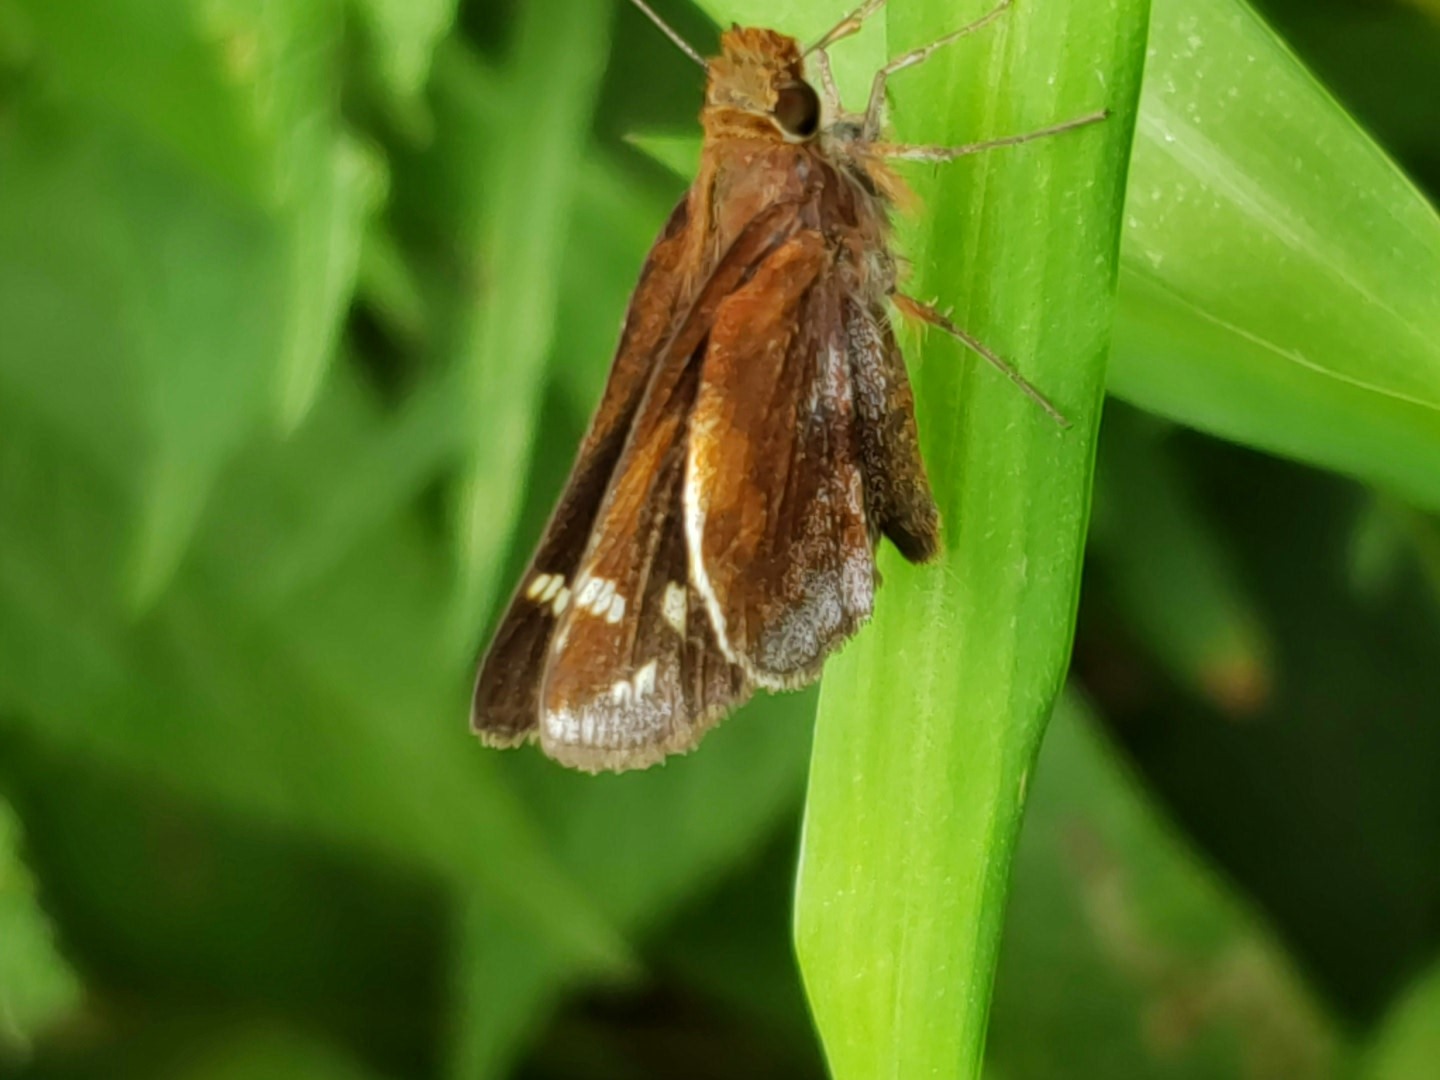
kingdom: Animalia
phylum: Arthropoda
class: Insecta
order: Lepidoptera
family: Hesperiidae
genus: Lon
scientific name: Lon zabulon
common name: Zabulon skipper
